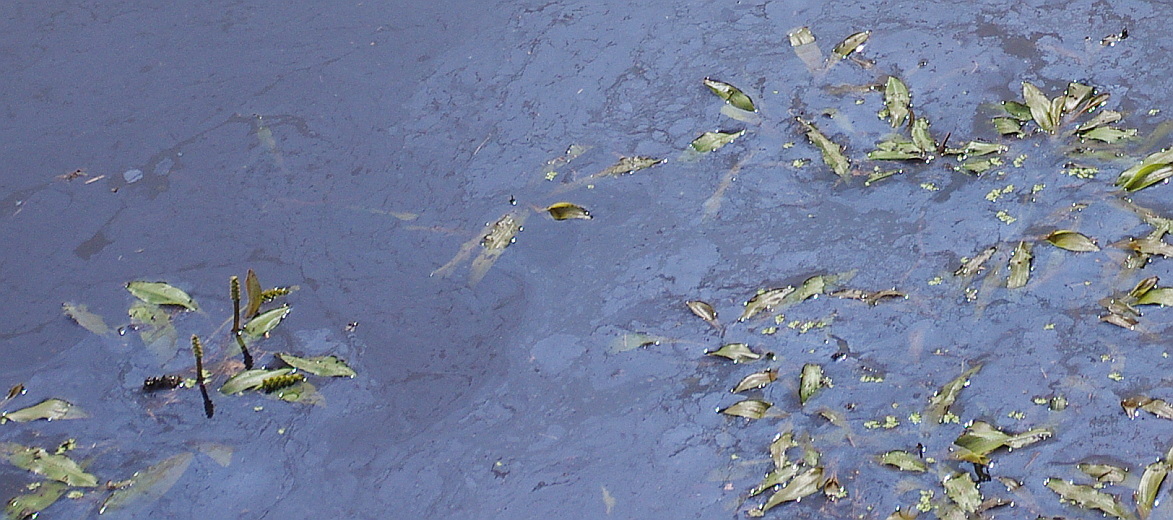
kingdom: Plantae
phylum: Tracheophyta
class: Liliopsida
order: Alismatales
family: Potamogetonaceae
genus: Potamogeton
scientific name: Potamogeton alpinus
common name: Red pondweed
